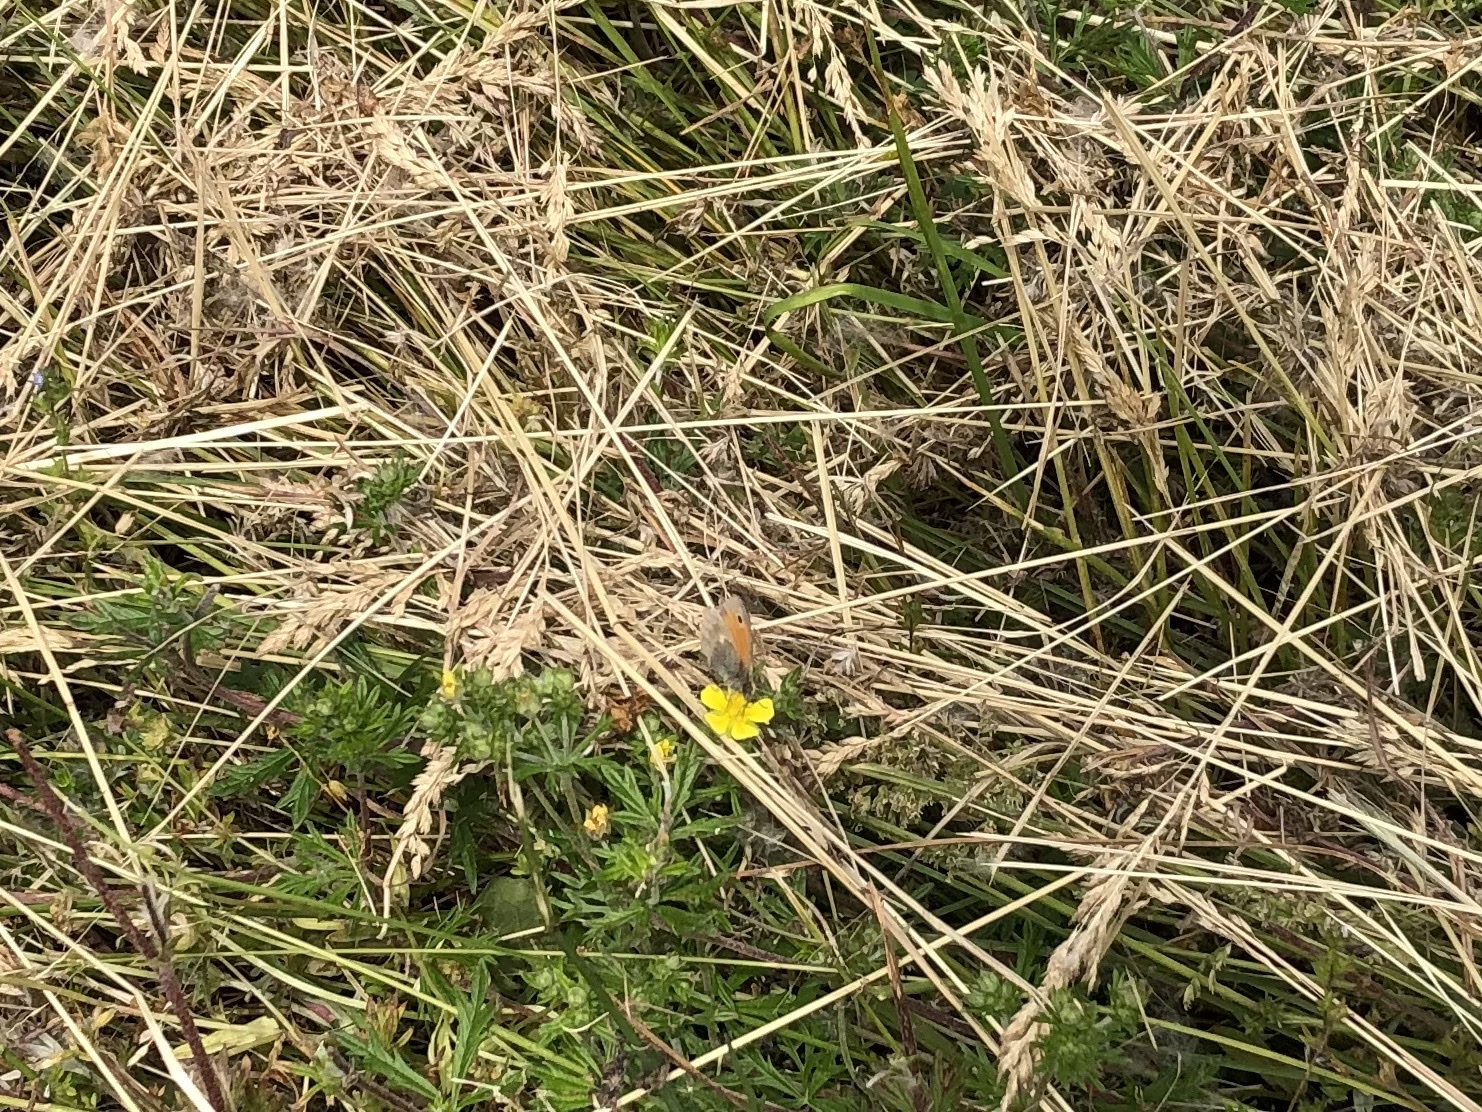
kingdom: Animalia
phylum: Arthropoda
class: Insecta
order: Lepidoptera
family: Nymphalidae
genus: Coenonympha
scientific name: Coenonympha pamphilus
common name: Small heath
